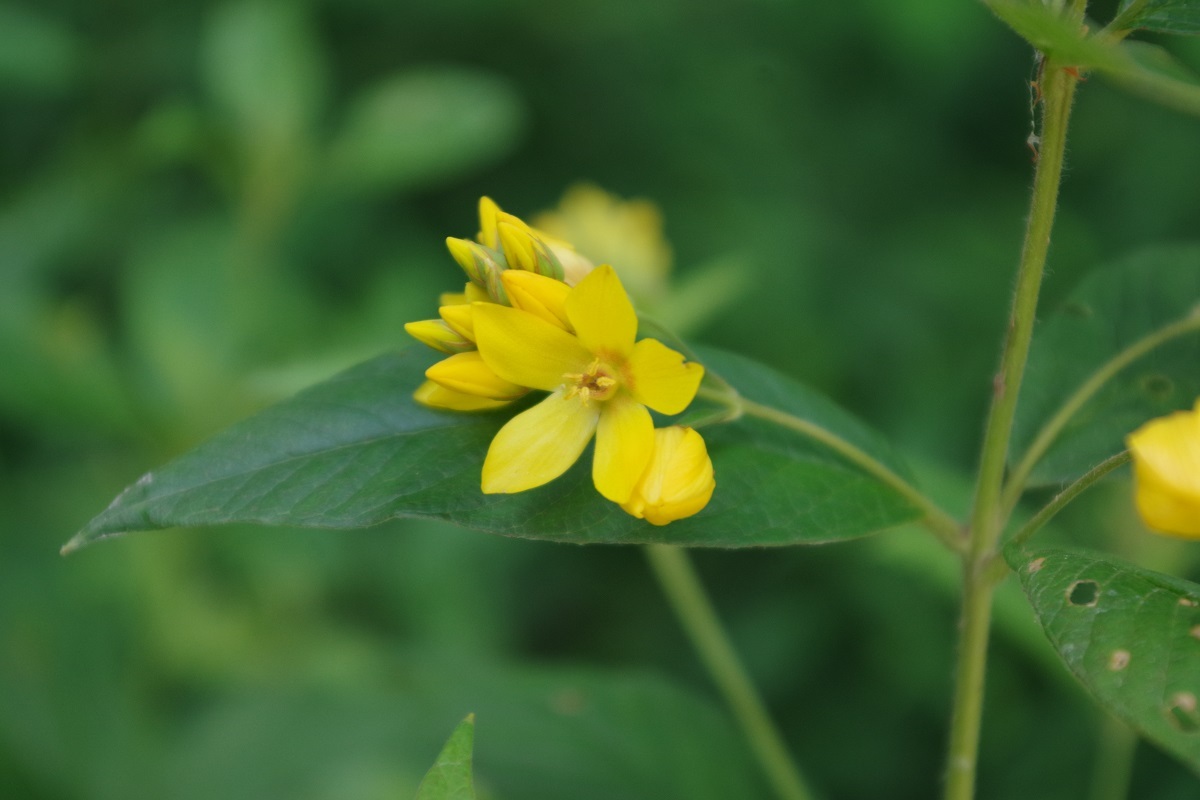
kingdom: Plantae
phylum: Tracheophyta
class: Magnoliopsida
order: Ericales
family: Primulaceae
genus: Lysimachia
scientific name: Lysimachia vulgaris
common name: Yellow loosestrife
